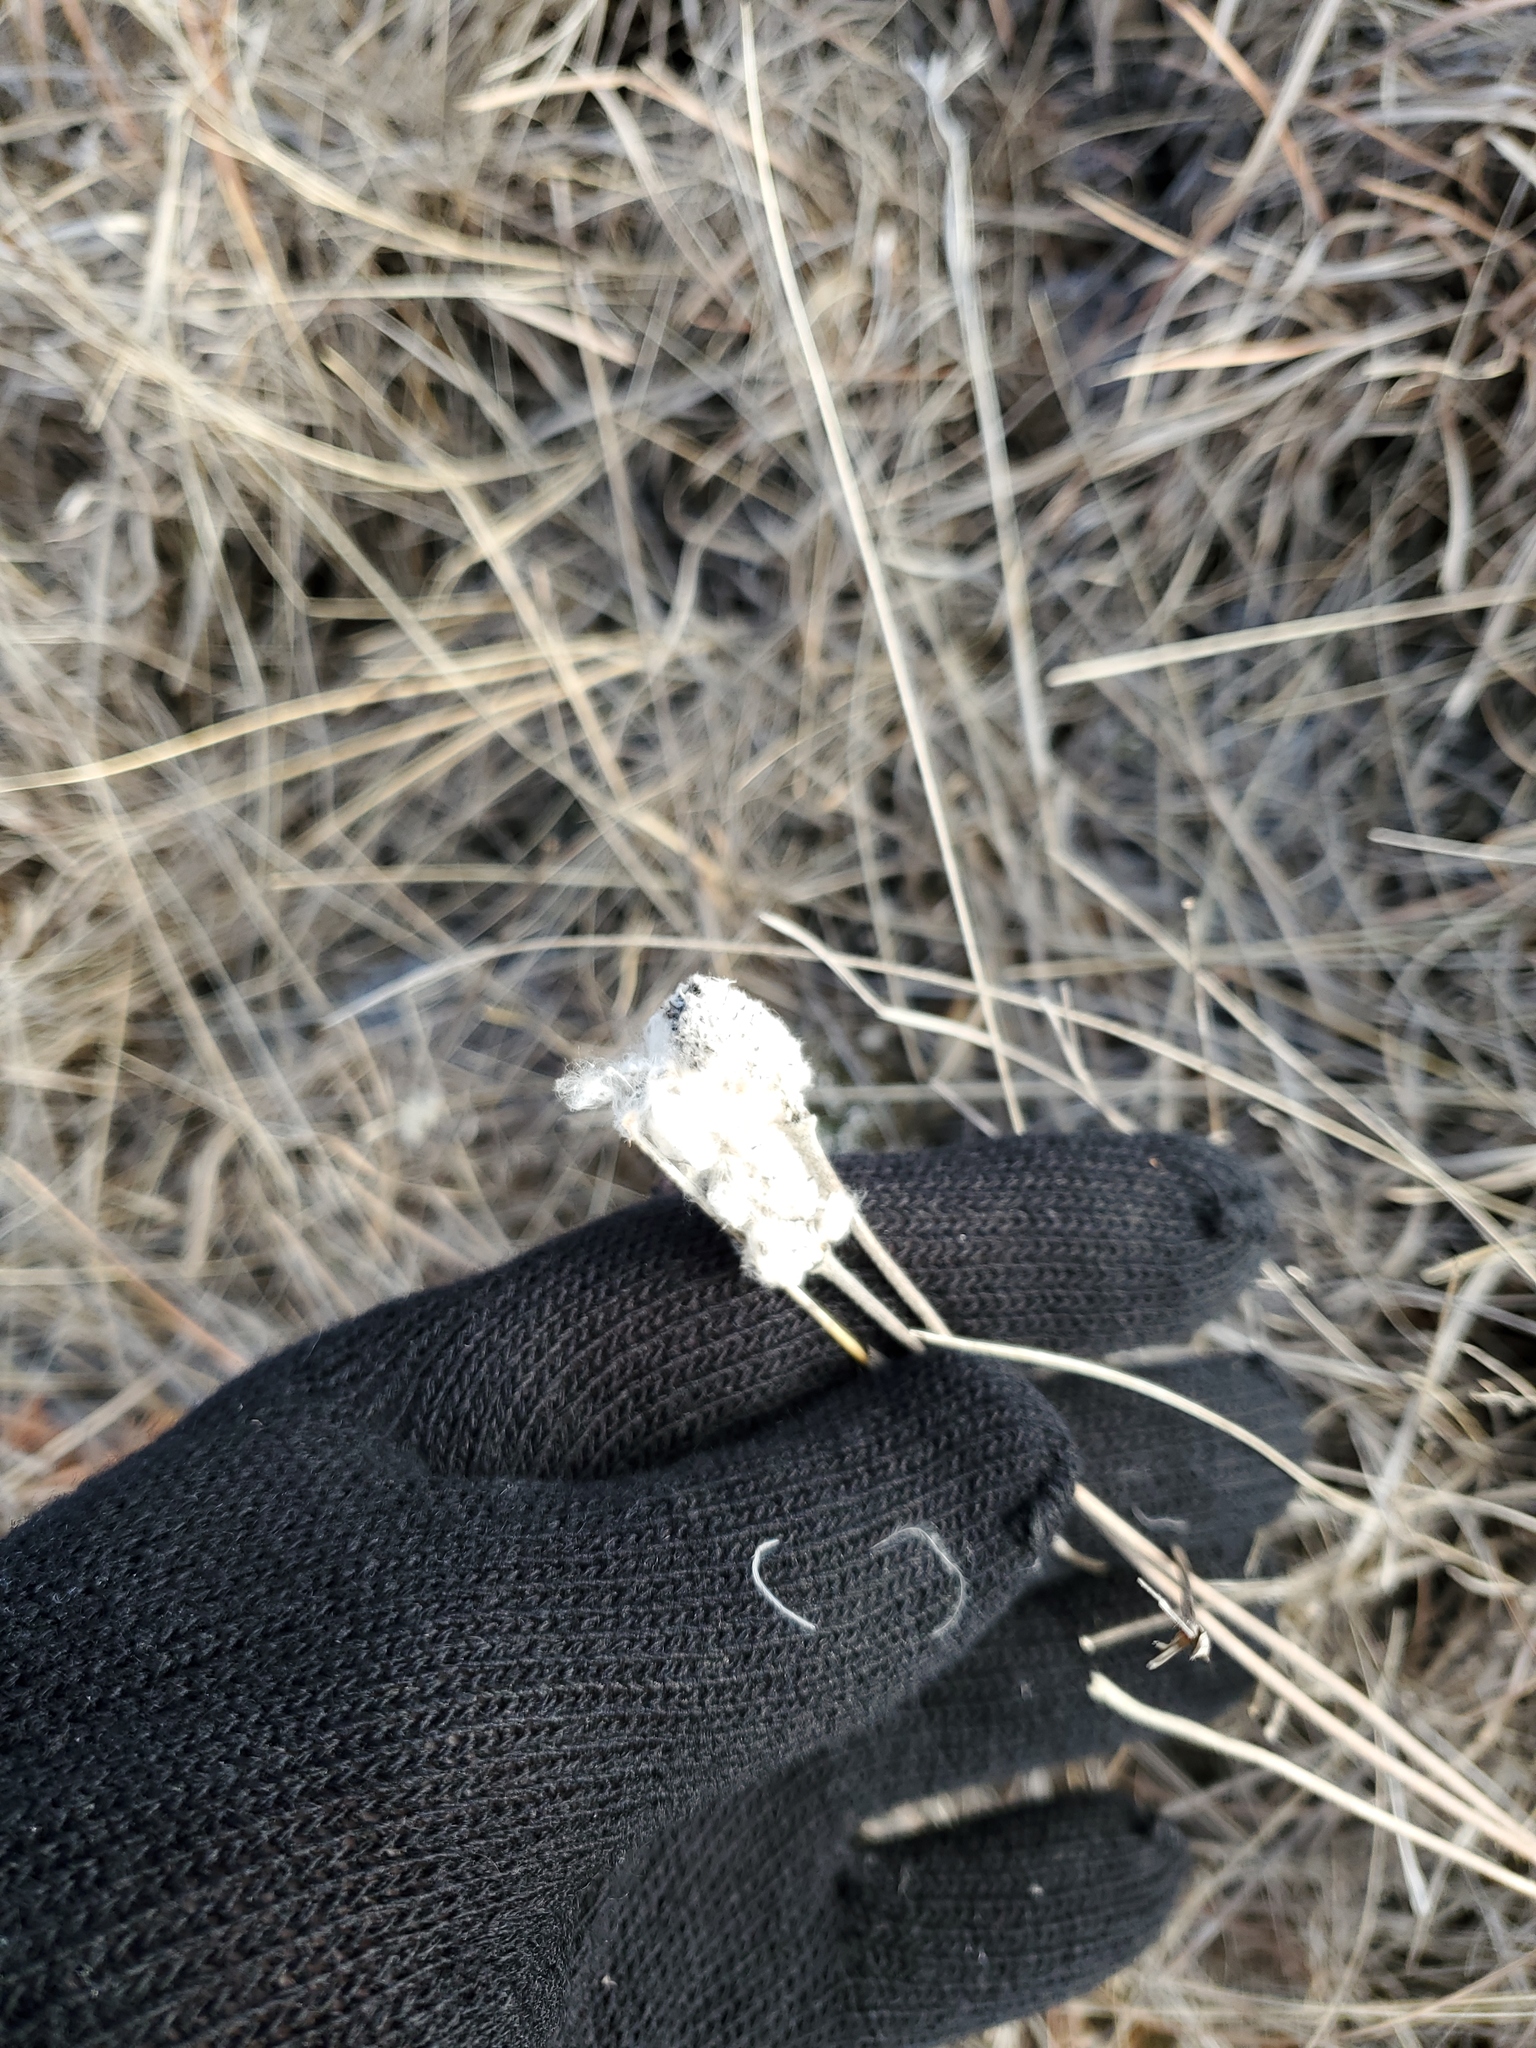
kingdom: Plantae
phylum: Tracheophyta
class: Magnoliopsida
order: Ranunculales
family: Ranunculaceae
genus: Anemone
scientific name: Anemone cylindrica
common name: Candle anemone
